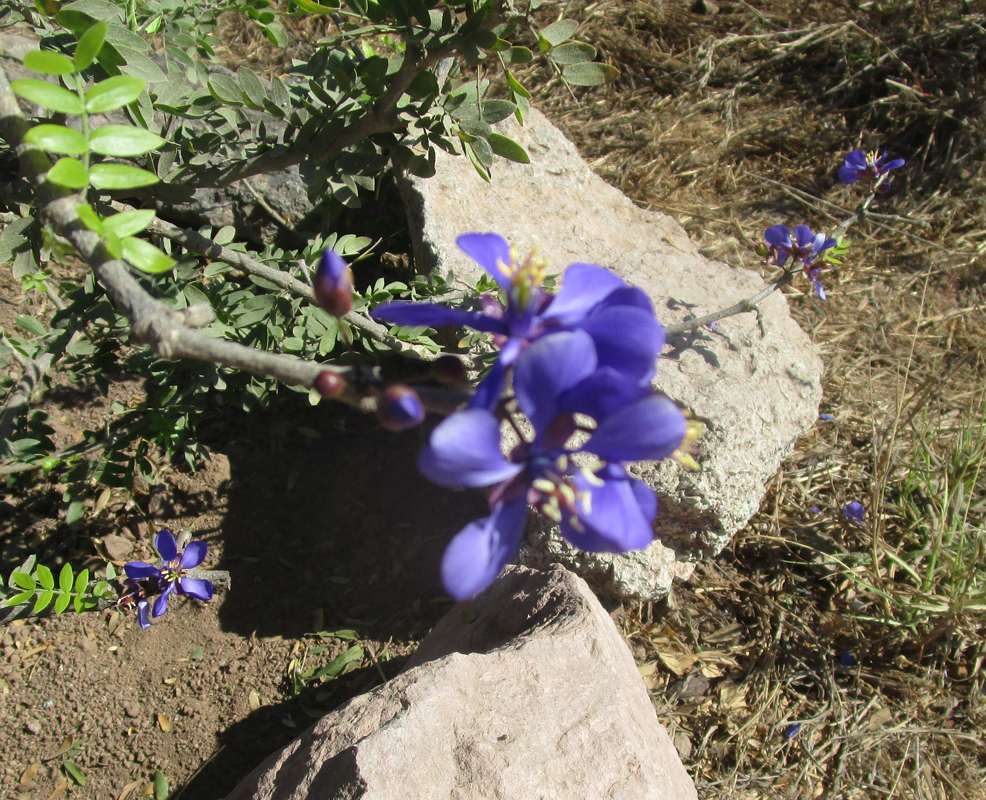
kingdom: Plantae
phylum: Tracheophyta
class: Magnoliopsida
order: Zygophyllales
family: Zygophyllaceae
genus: Guaiacum
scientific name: Guaiacum coulteri
